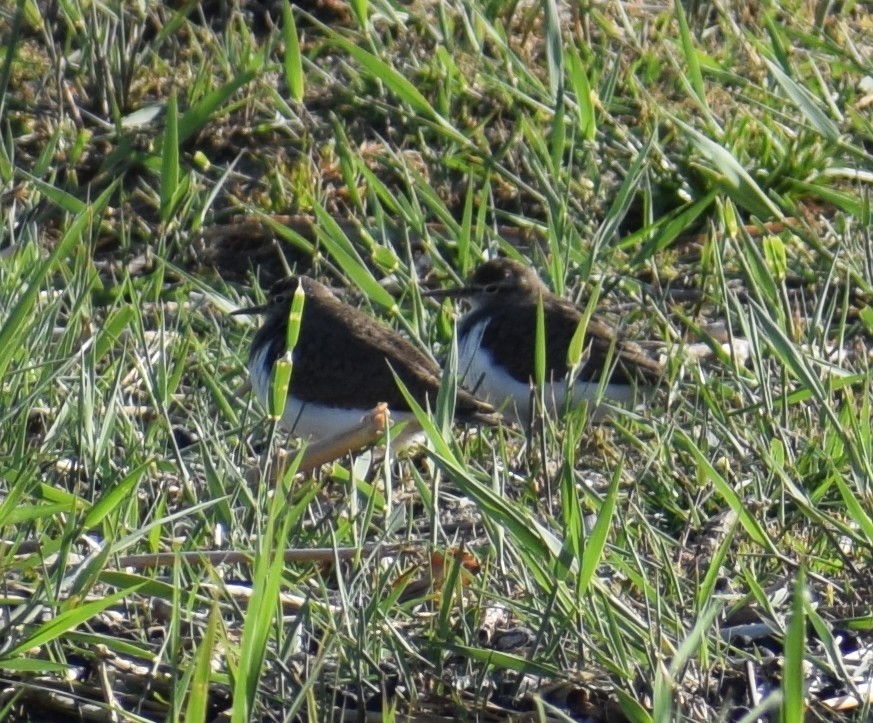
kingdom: Animalia
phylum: Chordata
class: Aves
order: Charadriiformes
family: Scolopacidae
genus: Actitis
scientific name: Actitis hypoleucos
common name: Common sandpiper
